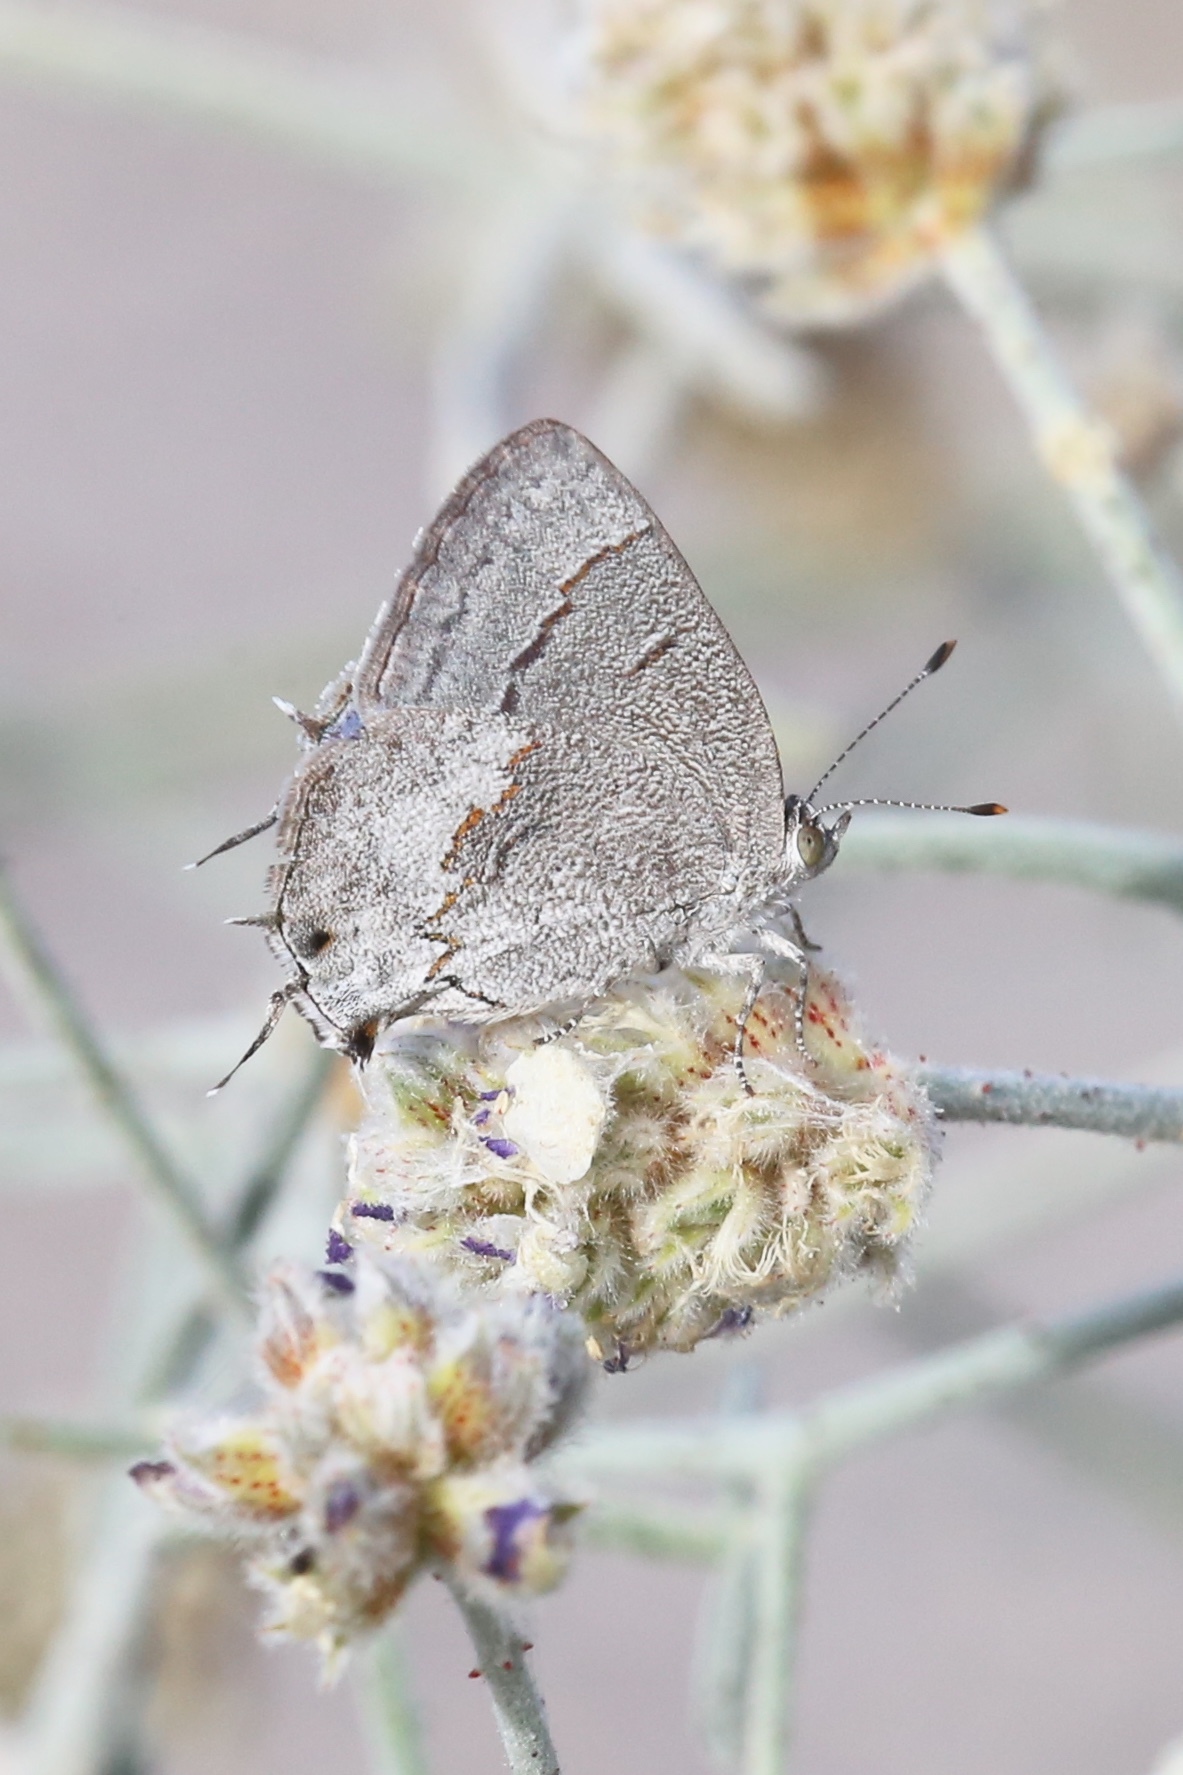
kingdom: Animalia
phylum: Arthropoda
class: Insecta
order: Lepidoptera
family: Lycaenidae
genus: Ministrymon
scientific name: Ministrymon leda
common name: Leda ministreak
